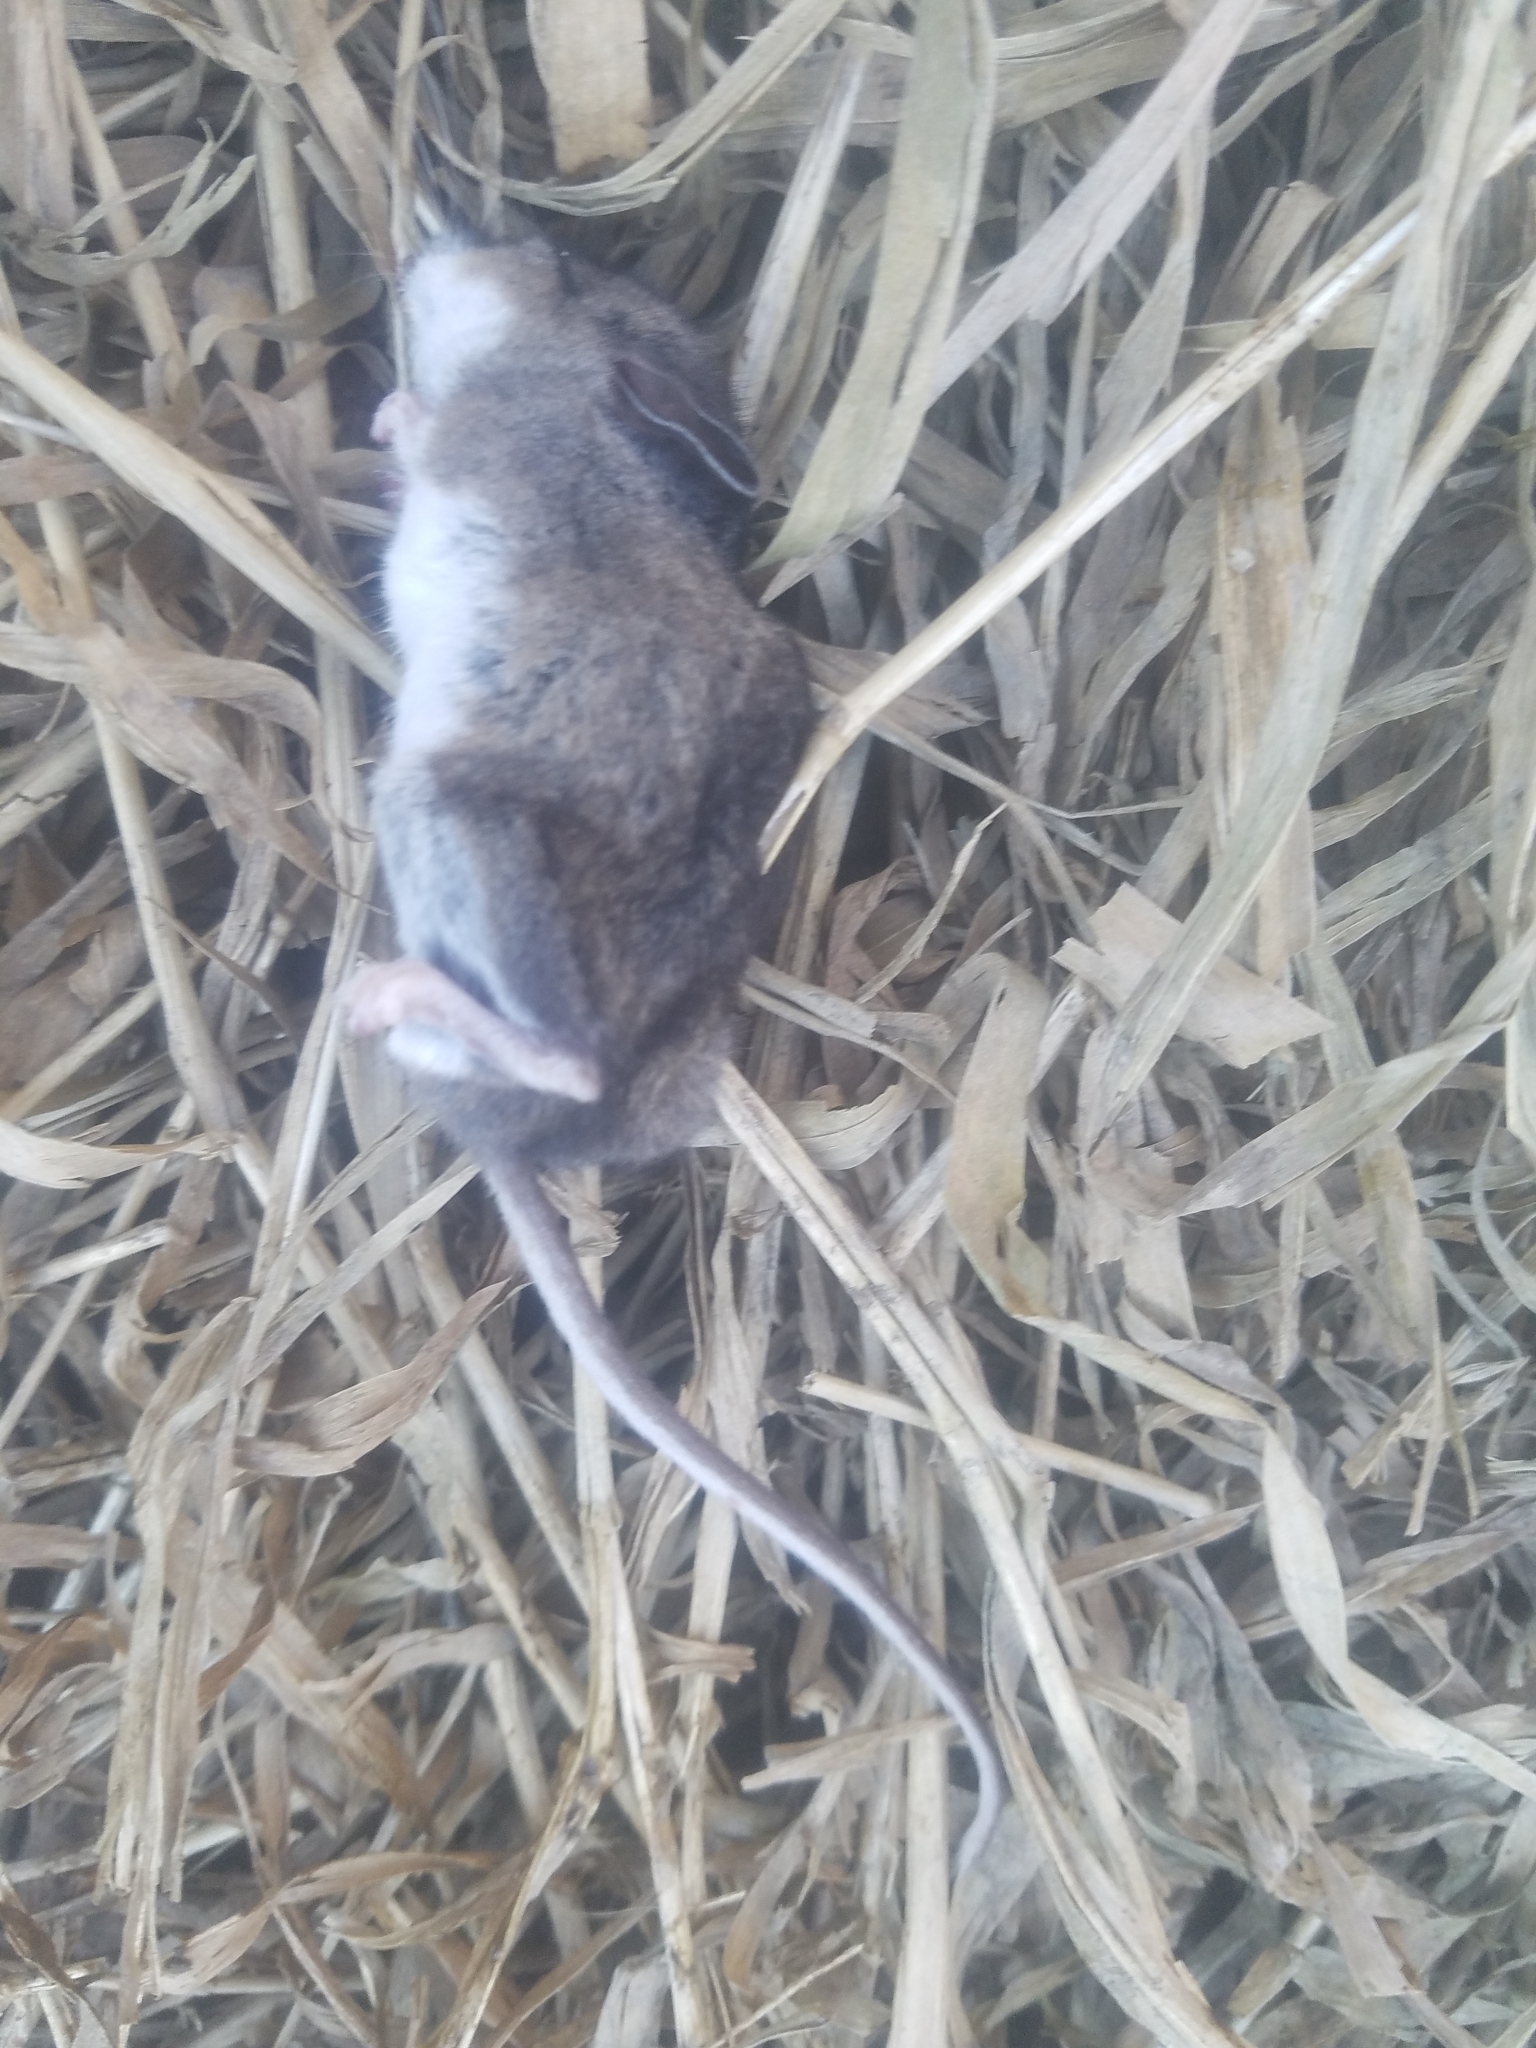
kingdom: Animalia
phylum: Chordata
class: Mammalia
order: Rodentia
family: Cricetidae
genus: Peromyscus
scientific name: Peromyscus maniculatus
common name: Deer mouse
